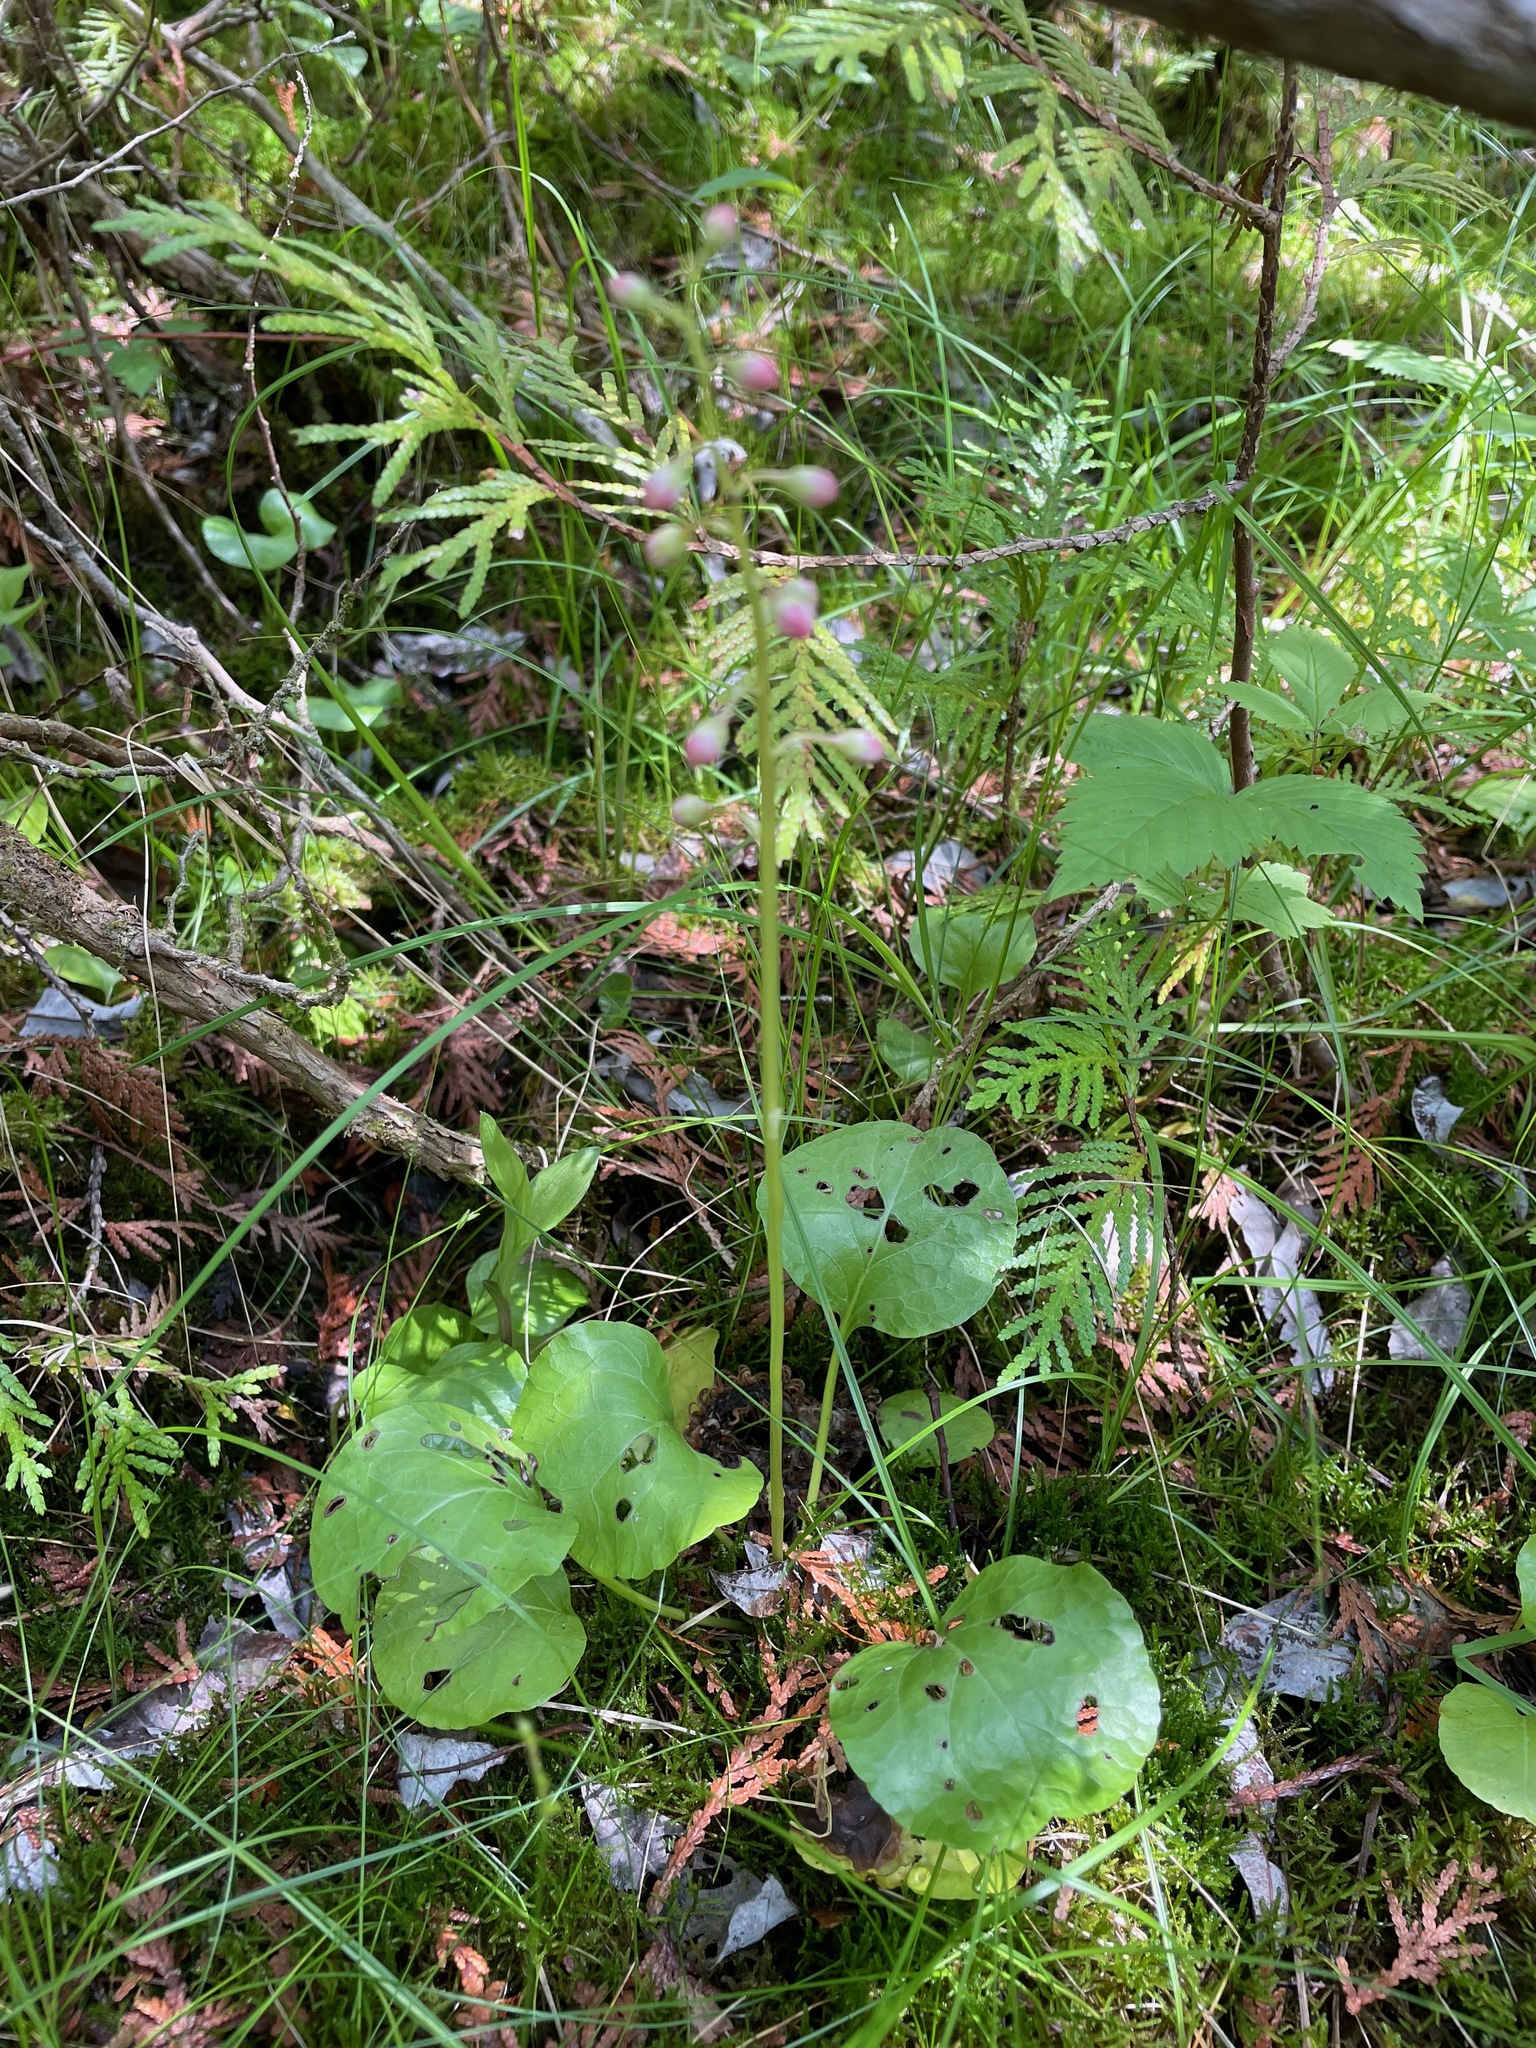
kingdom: Plantae
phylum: Tracheophyta
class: Magnoliopsida
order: Ericales
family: Ericaceae
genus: Pyrola
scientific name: Pyrola asarifolia
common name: Bog wintergreen
